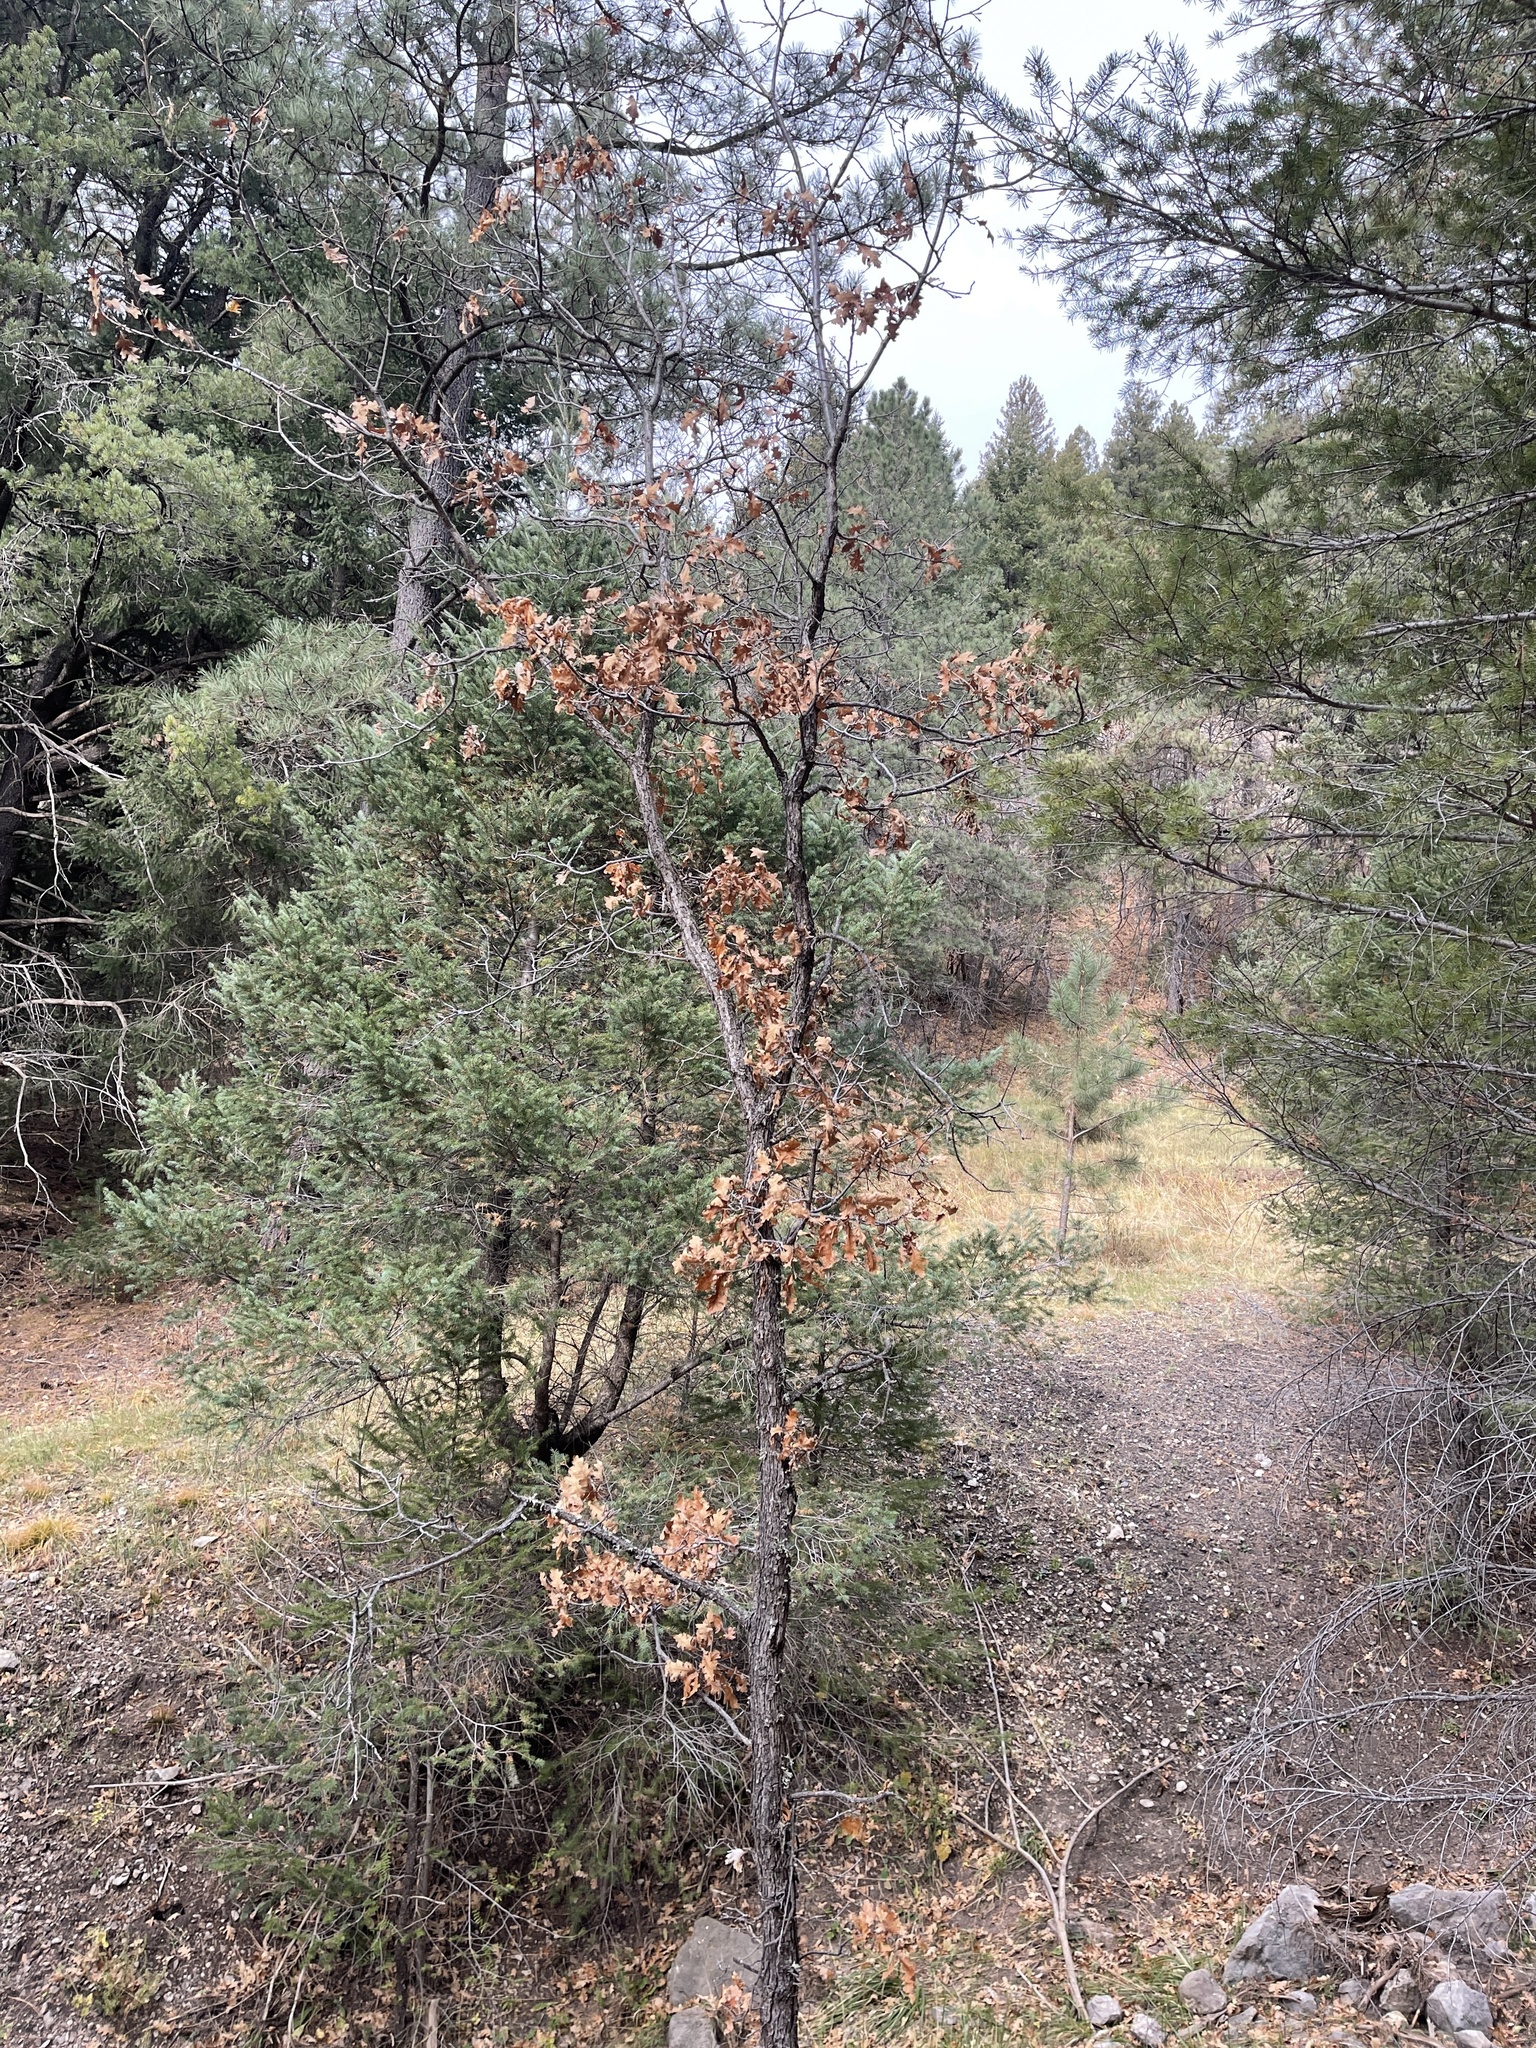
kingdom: Plantae
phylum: Tracheophyta
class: Magnoliopsida
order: Fagales
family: Fagaceae
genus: Quercus
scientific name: Quercus gambelii
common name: Gambel oak
